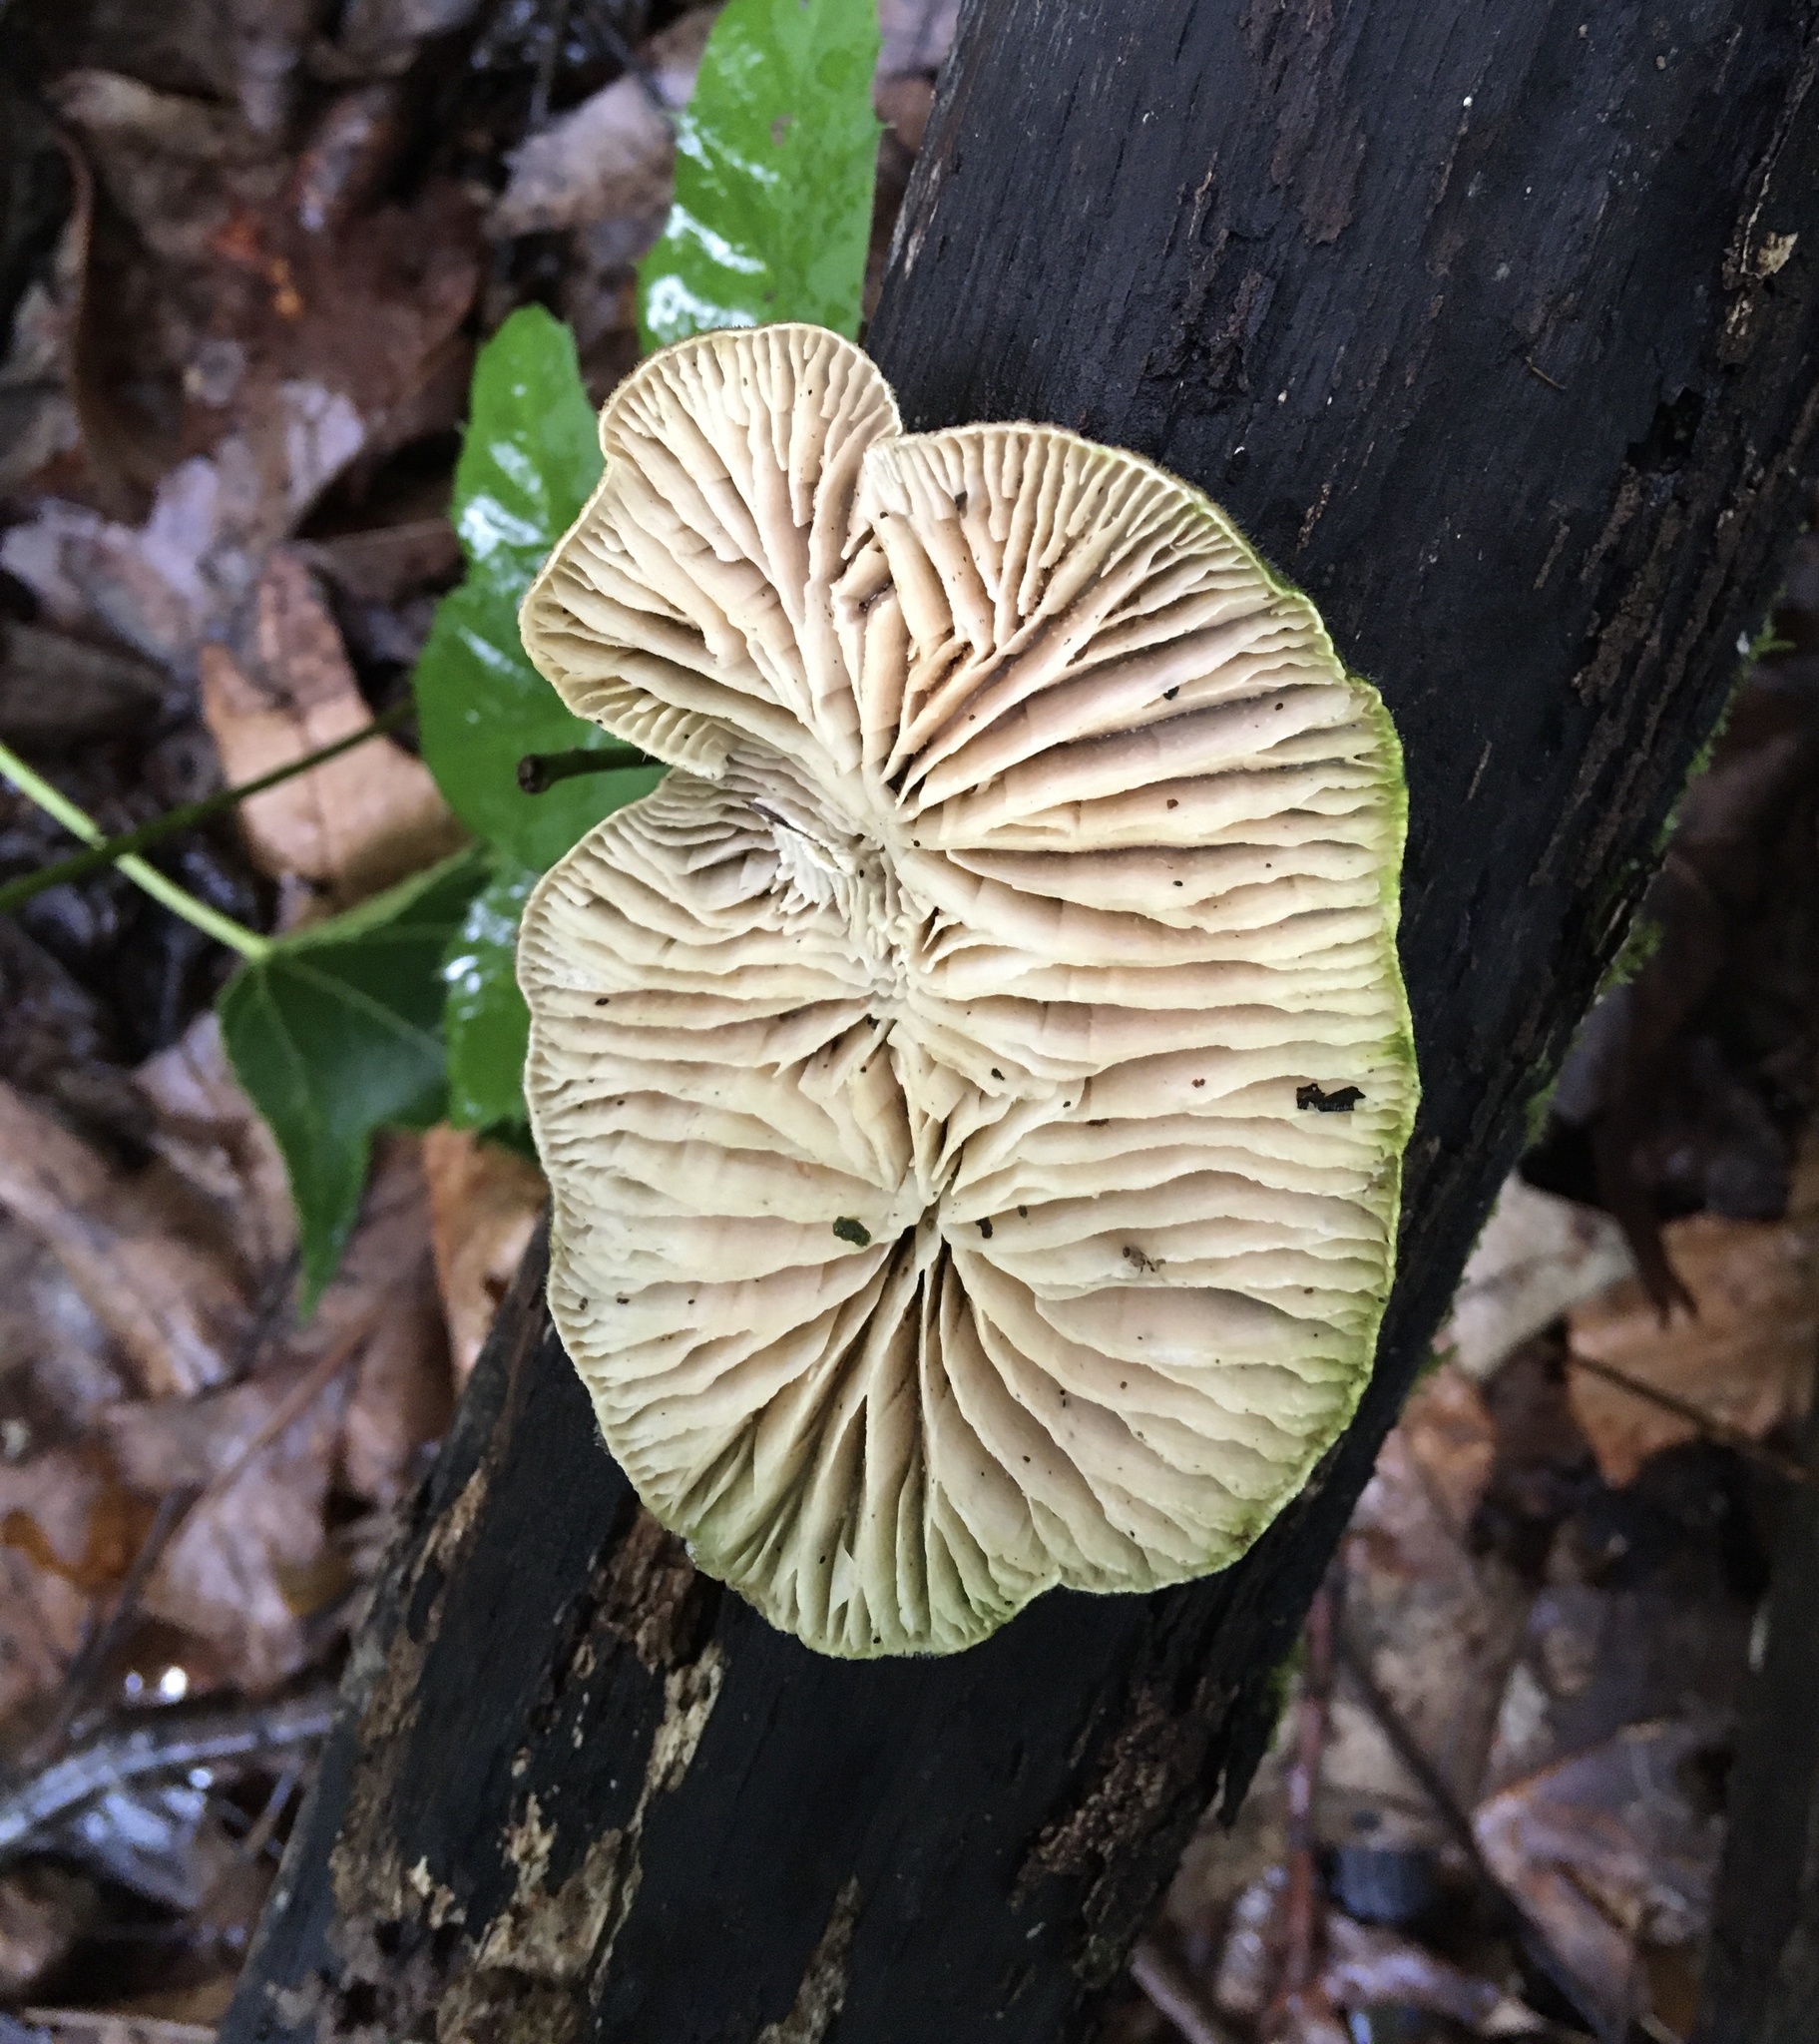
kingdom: Fungi
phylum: Basidiomycota
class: Agaricomycetes
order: Polyporales
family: Polyporaceae
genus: Lenzites
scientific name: Lenzites betulinus
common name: Birch mazegill
